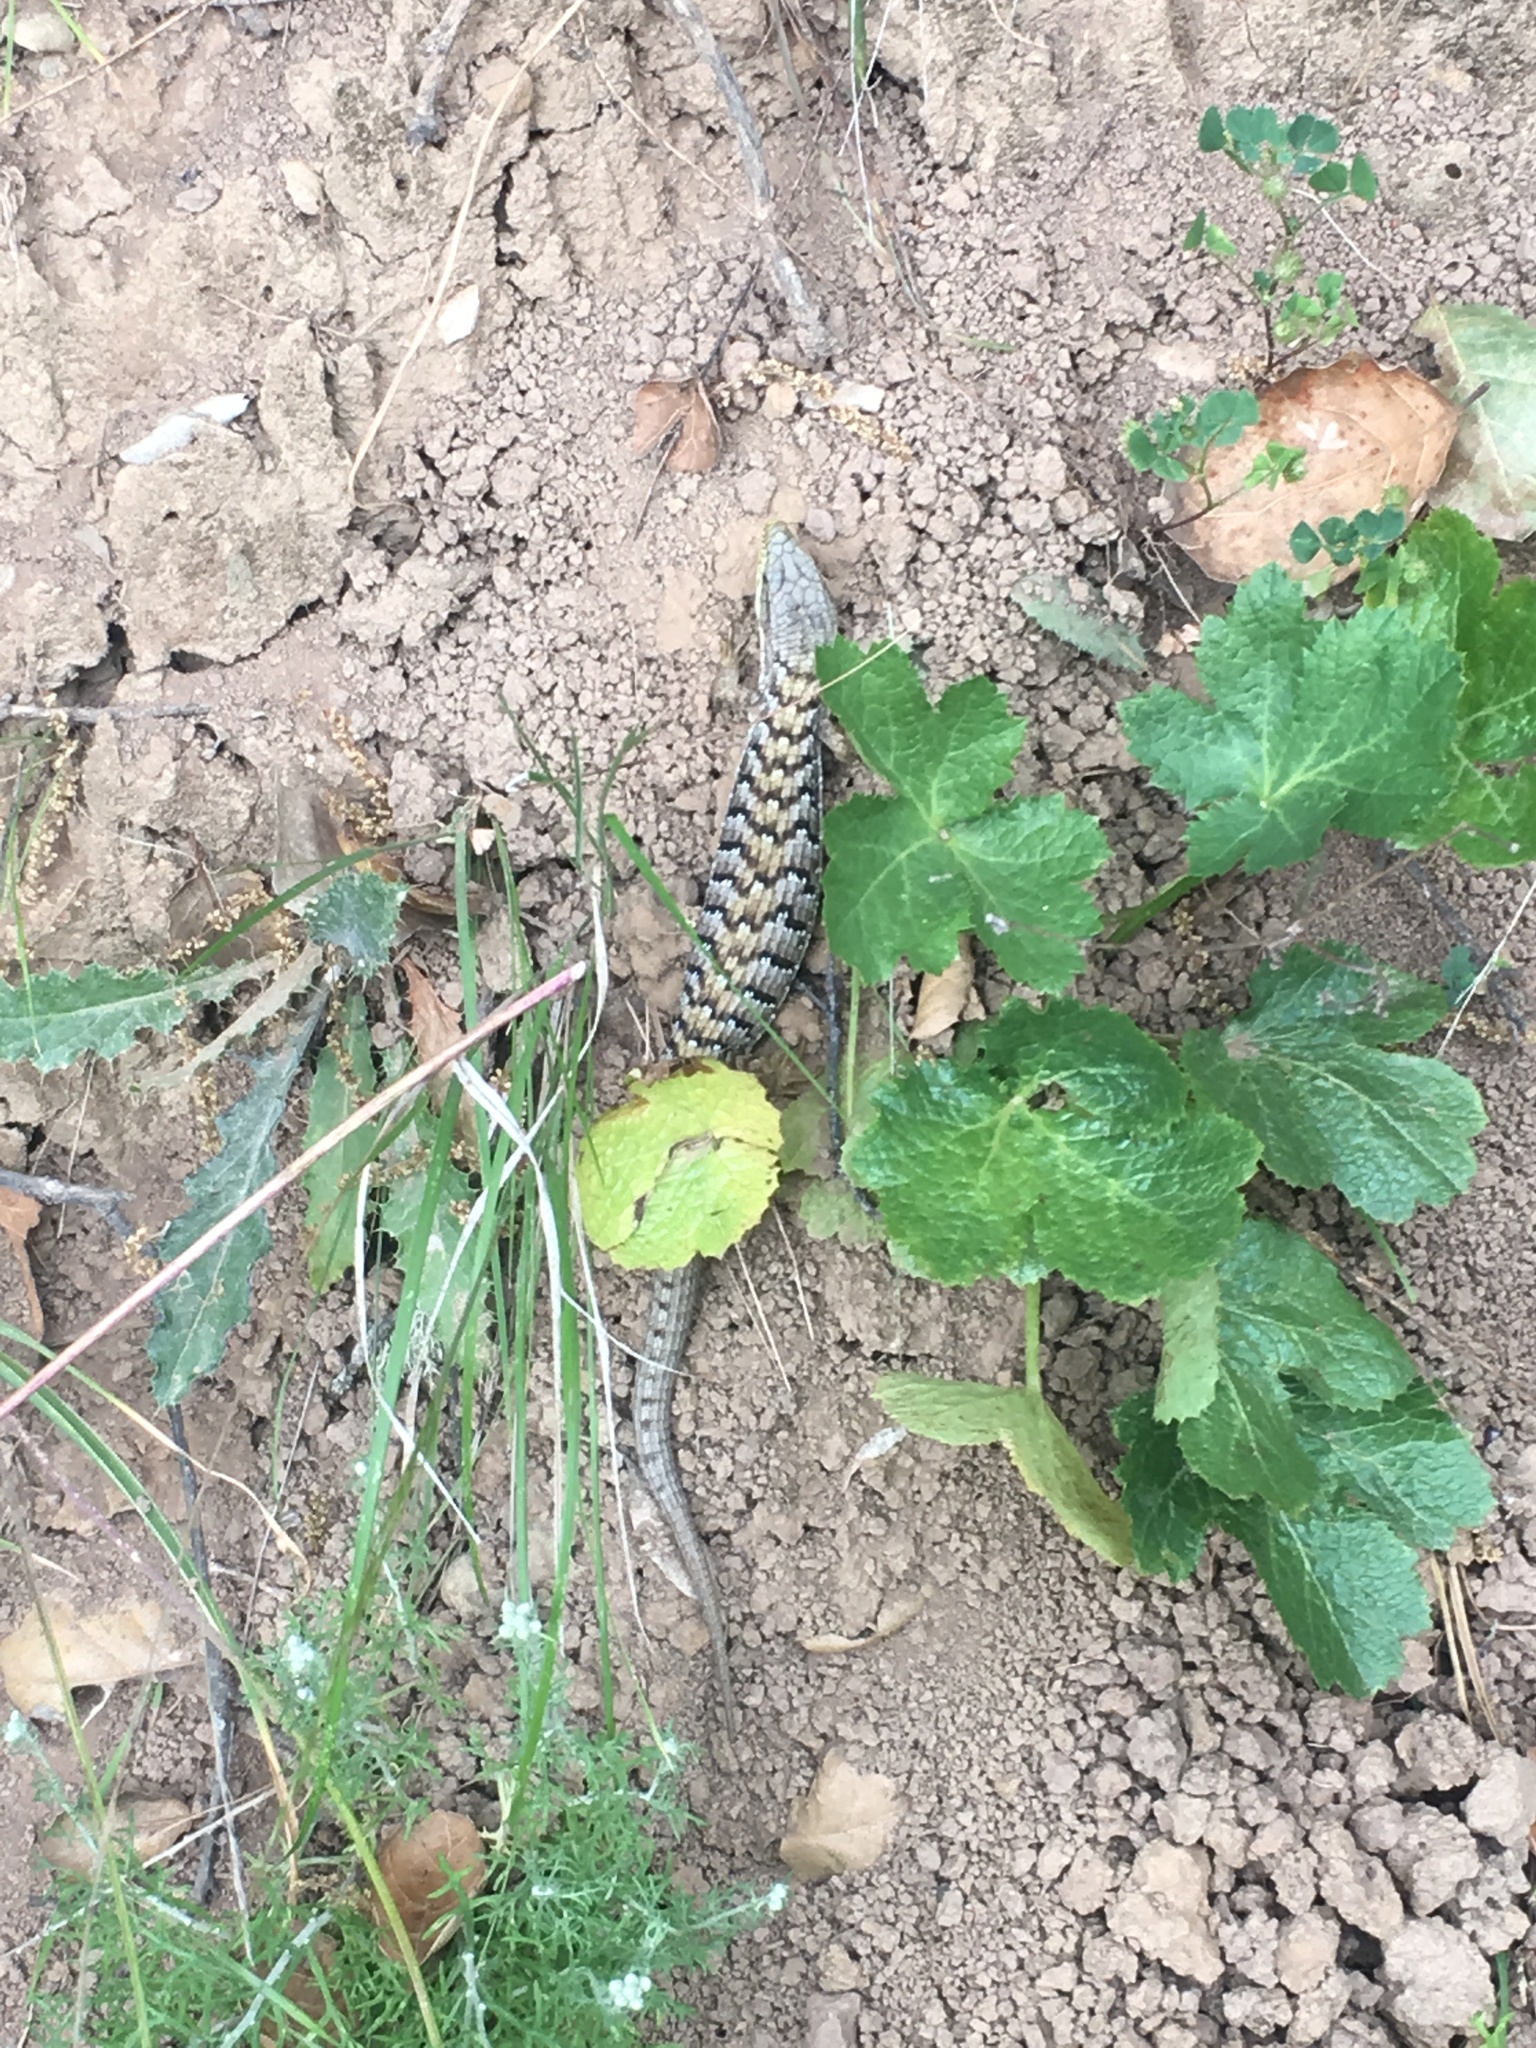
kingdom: Animalia
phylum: Chordata
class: Squamata
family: Anguidae
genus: Elgaria
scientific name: Elgaria multicarinata
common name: Southern alligator lizard
